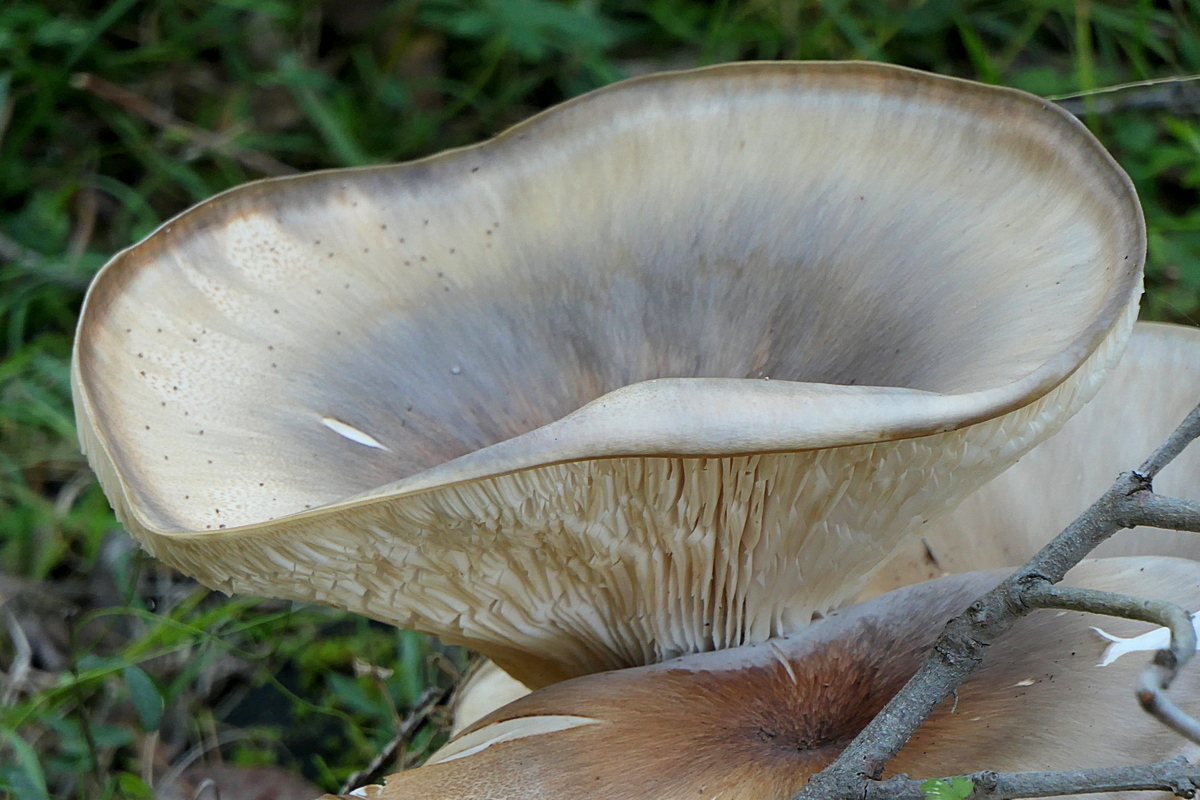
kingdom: Fungi
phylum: Basidiomycota
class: Agaricomycetes
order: Agaricales
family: Omphalotaceae
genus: Omphalotus
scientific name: Omphalotus nidiformis
